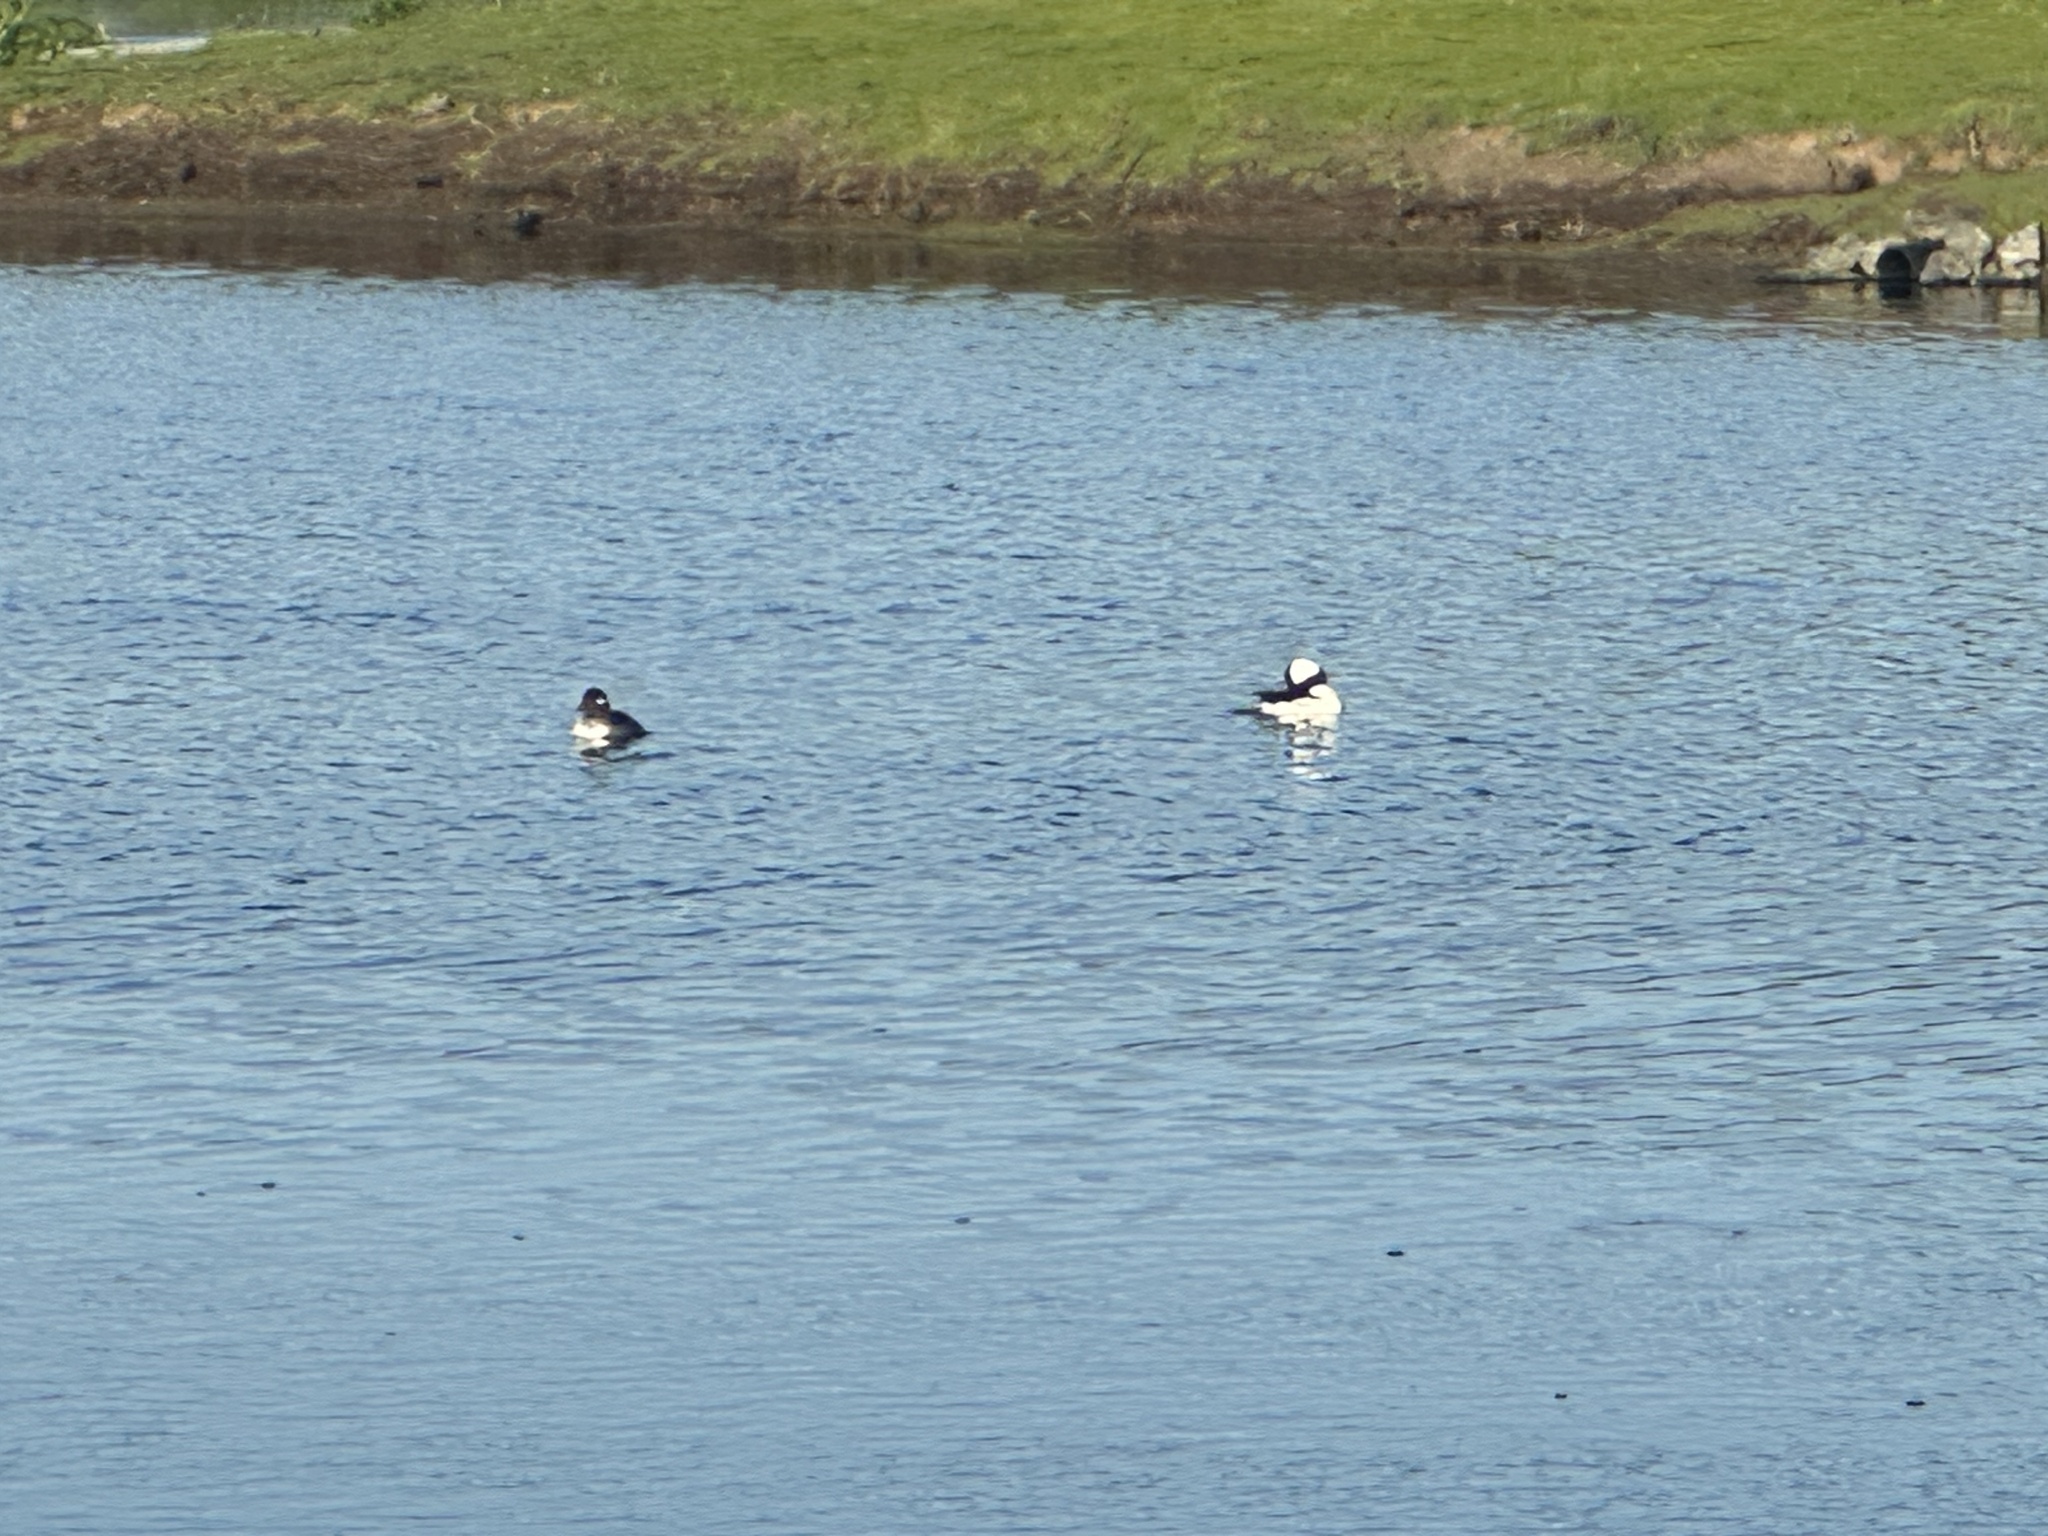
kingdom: Animalia
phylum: Chordata
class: Aves
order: Anseriformes
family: Anatidae
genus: Bucephala
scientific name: Bucephala albeola
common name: Bufflehead
